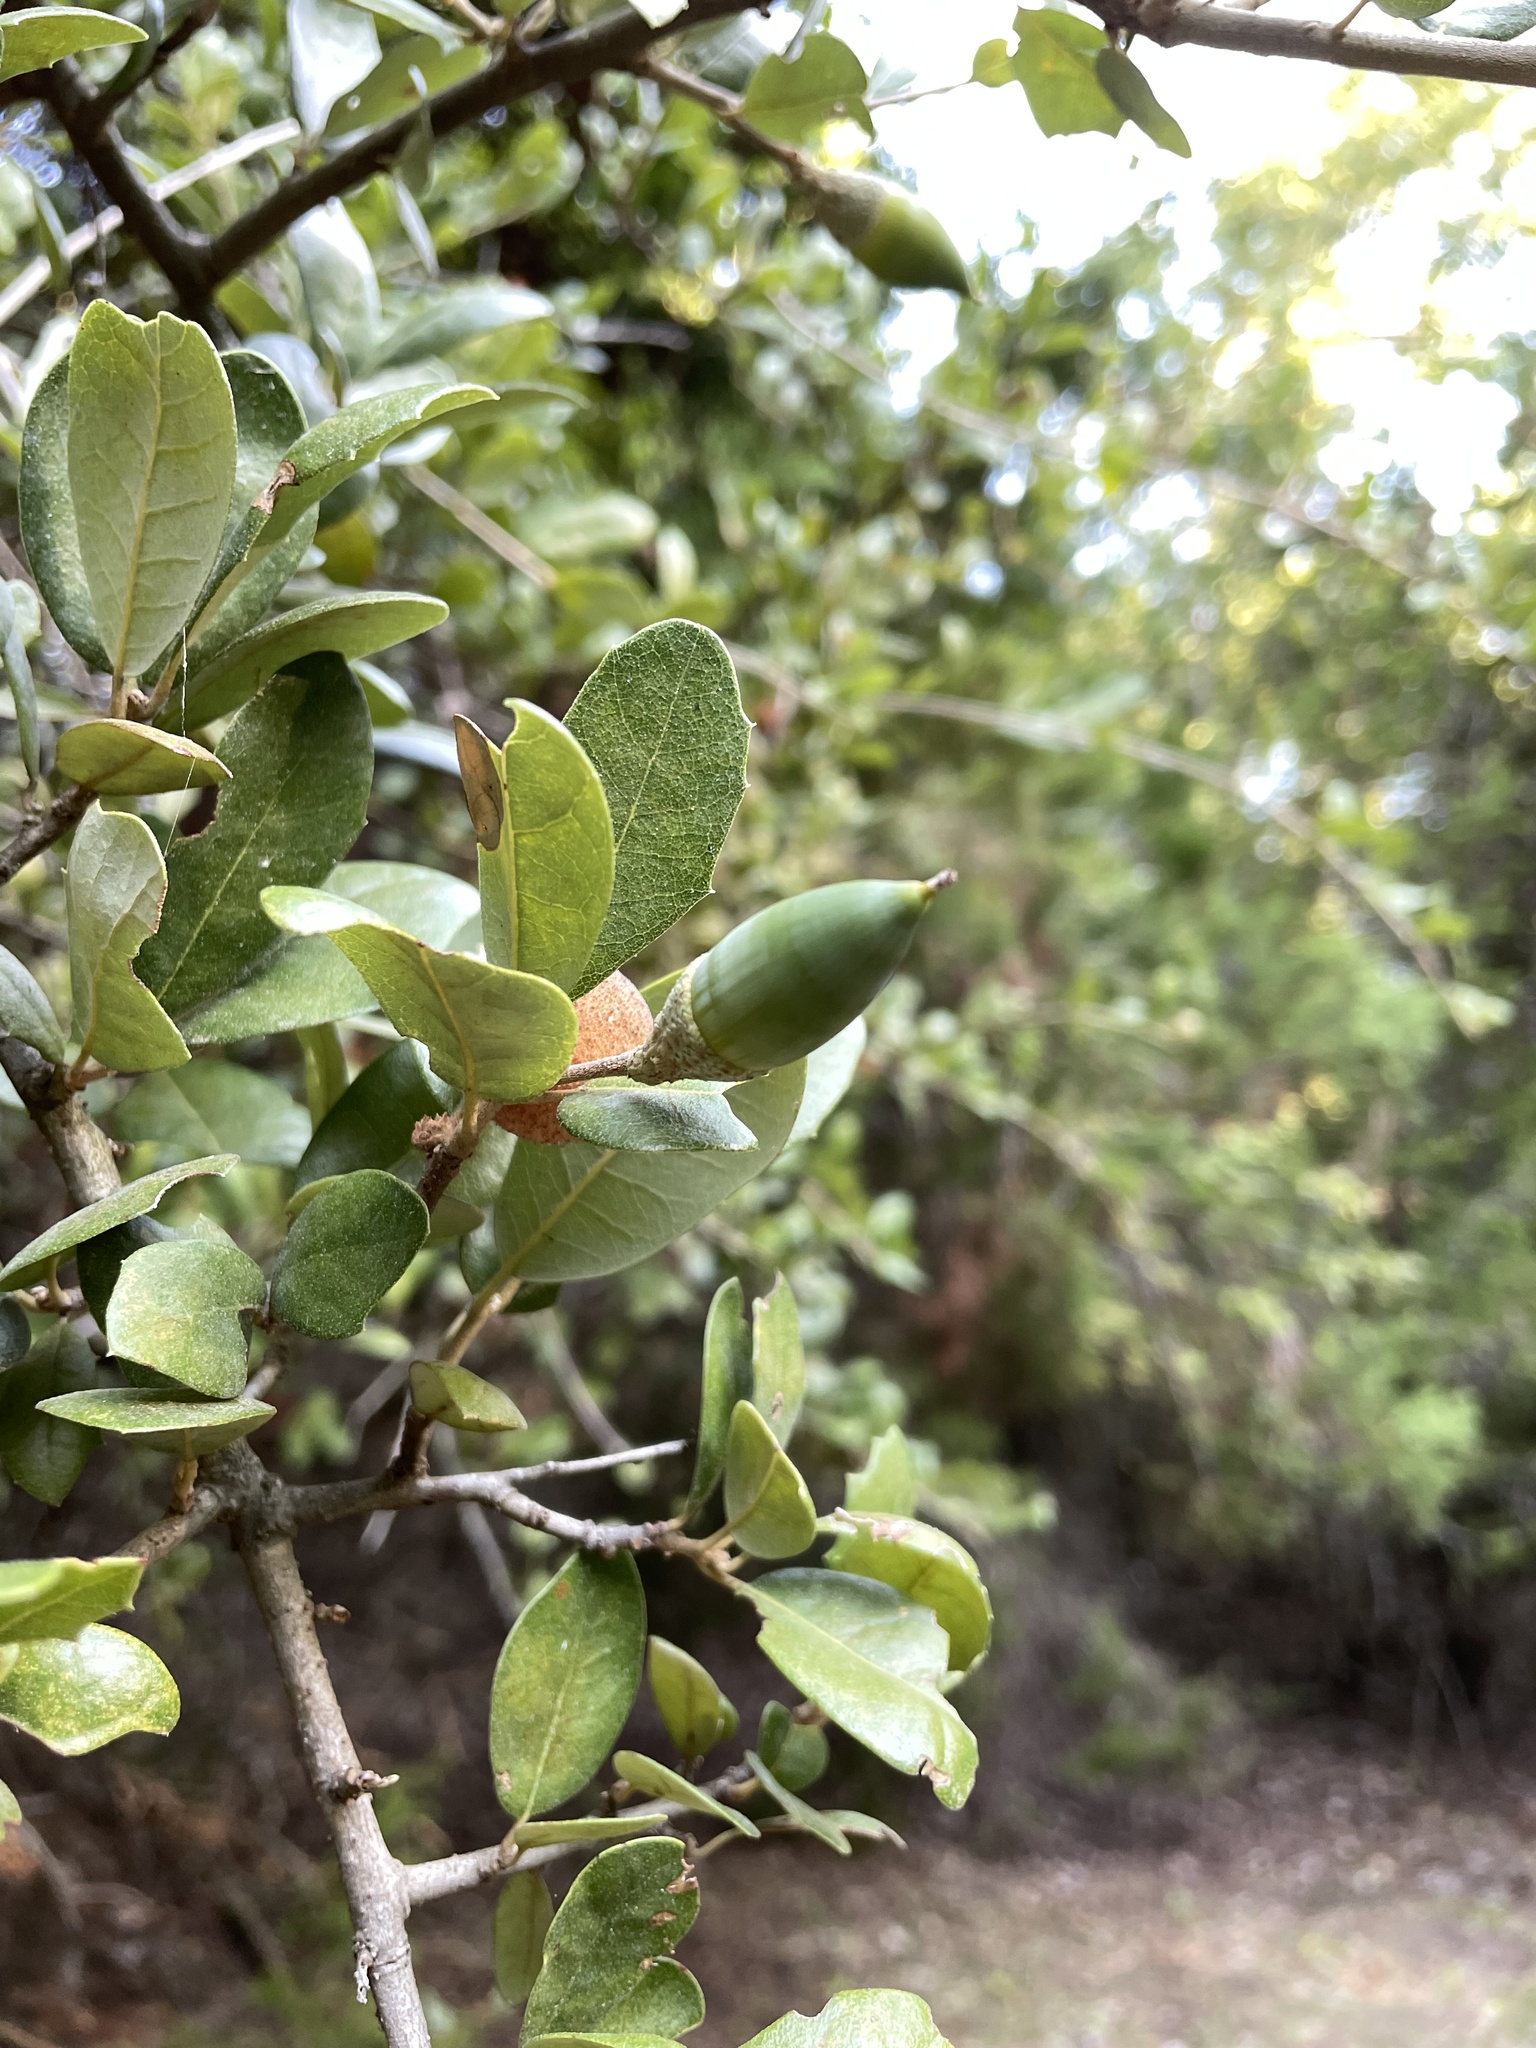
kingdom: Plantae
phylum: Tracheophyta
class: Magnoliopsida
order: Fagales
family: Fagaceae
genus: Quercus
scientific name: Quercus fusiformis
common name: Texas live oak
